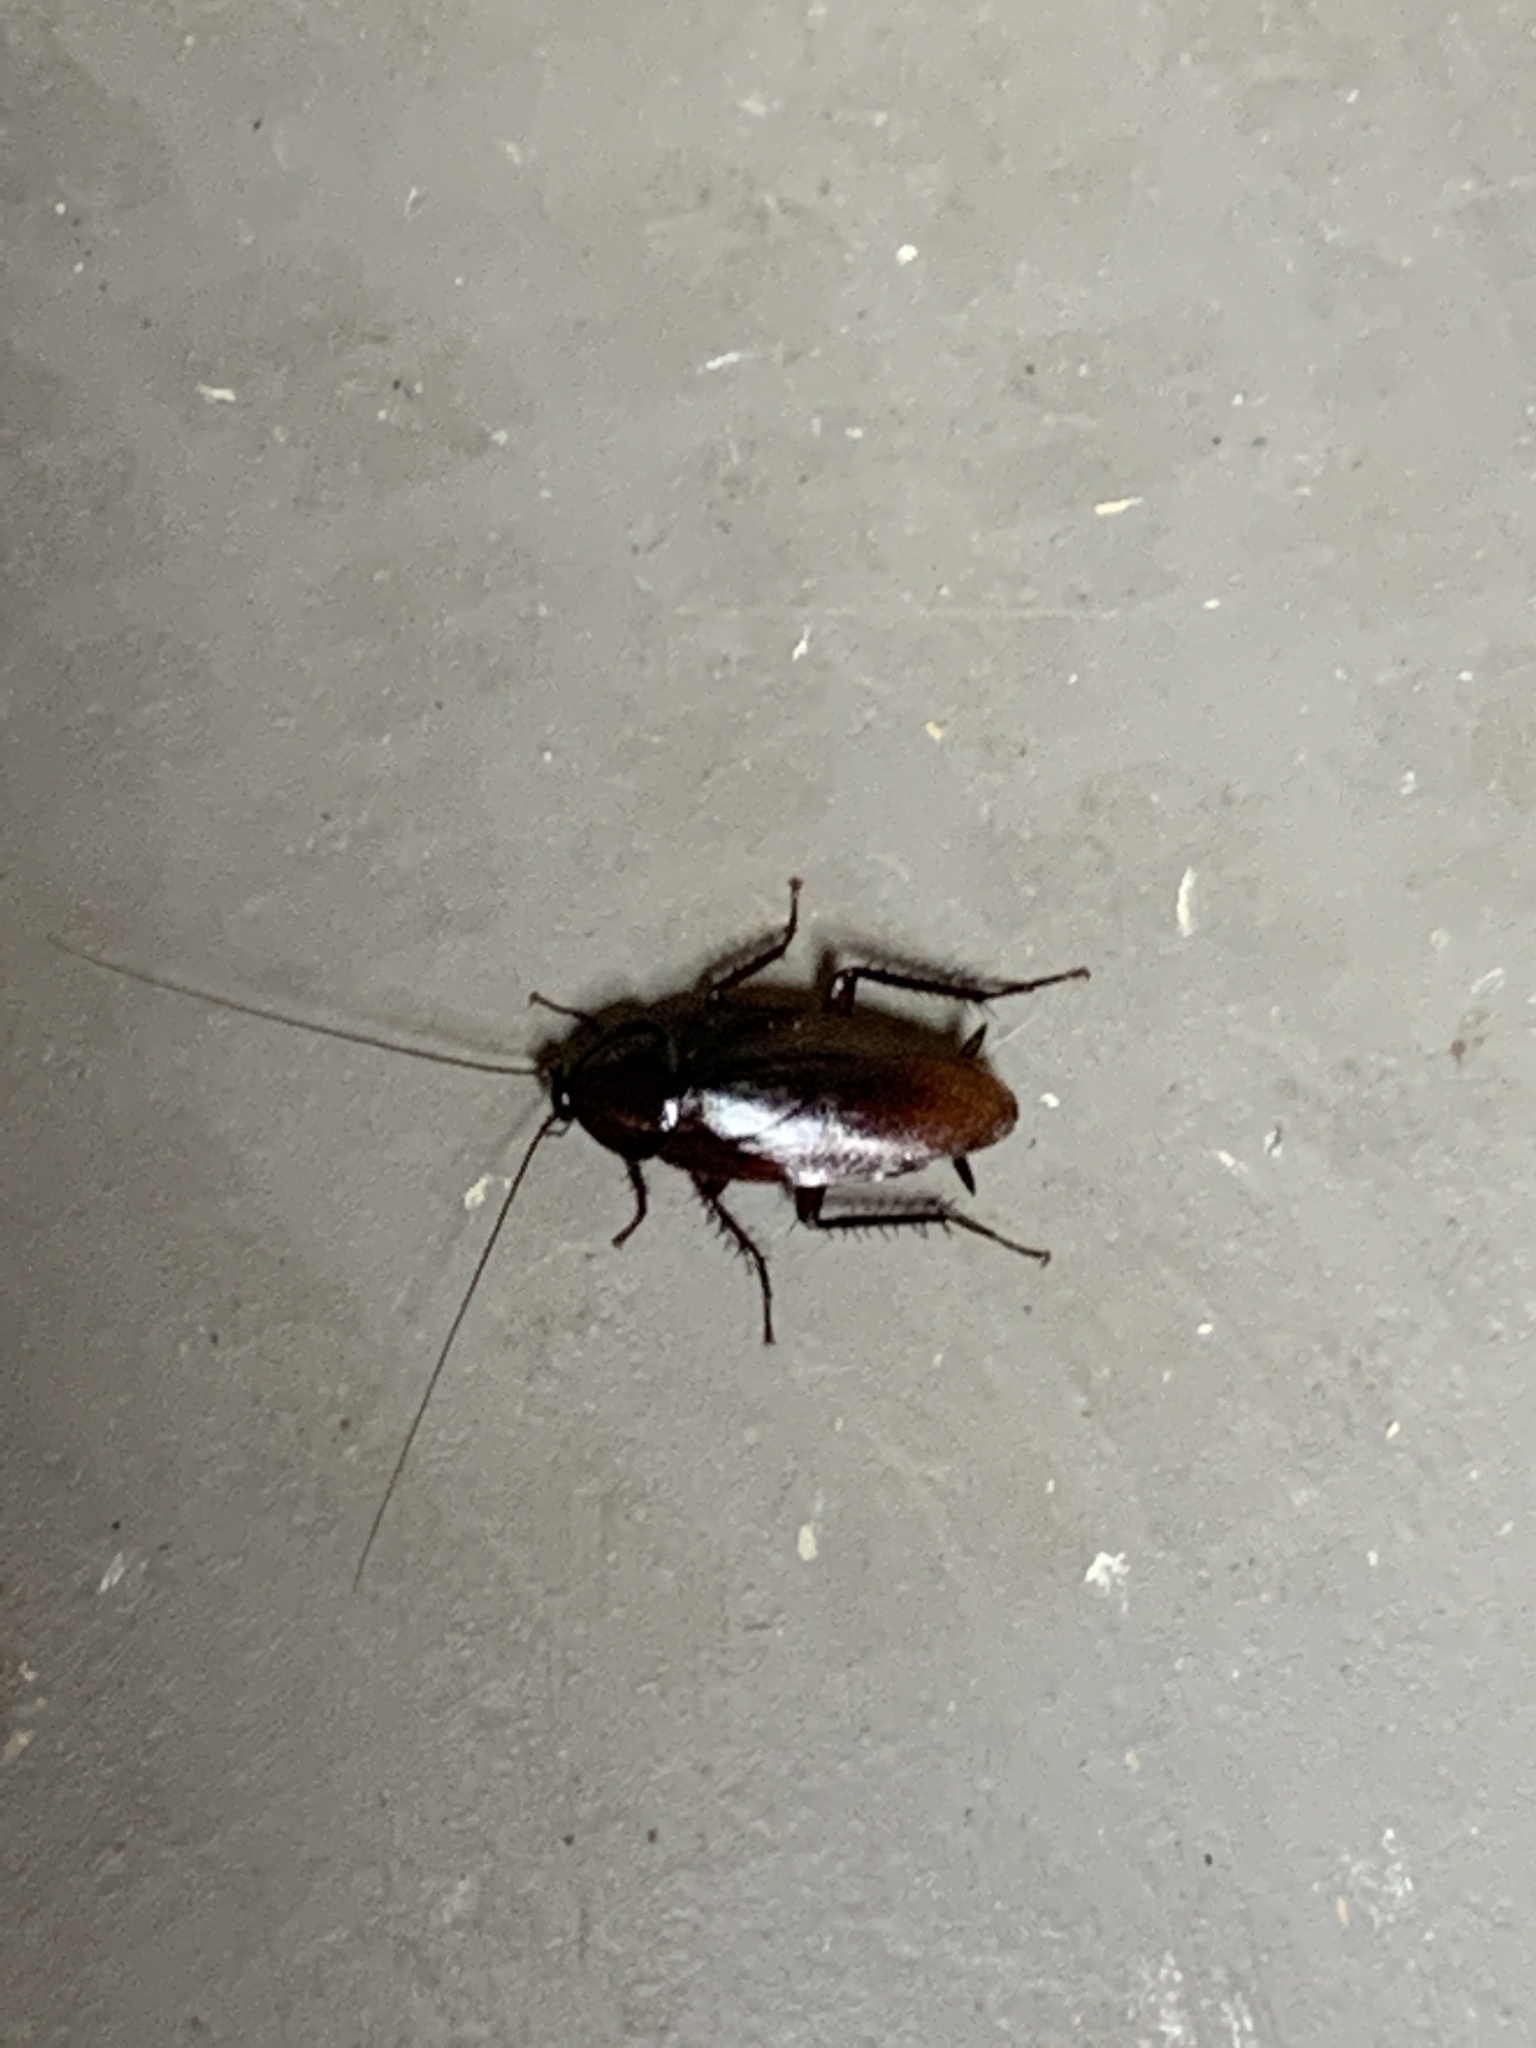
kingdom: Animalia
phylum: Arthropoda
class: Insecta
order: Blattodea
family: Blattidae
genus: Periplaneta
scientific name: Periplaneta fuliginosa
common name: Smokeybrown cockroad
